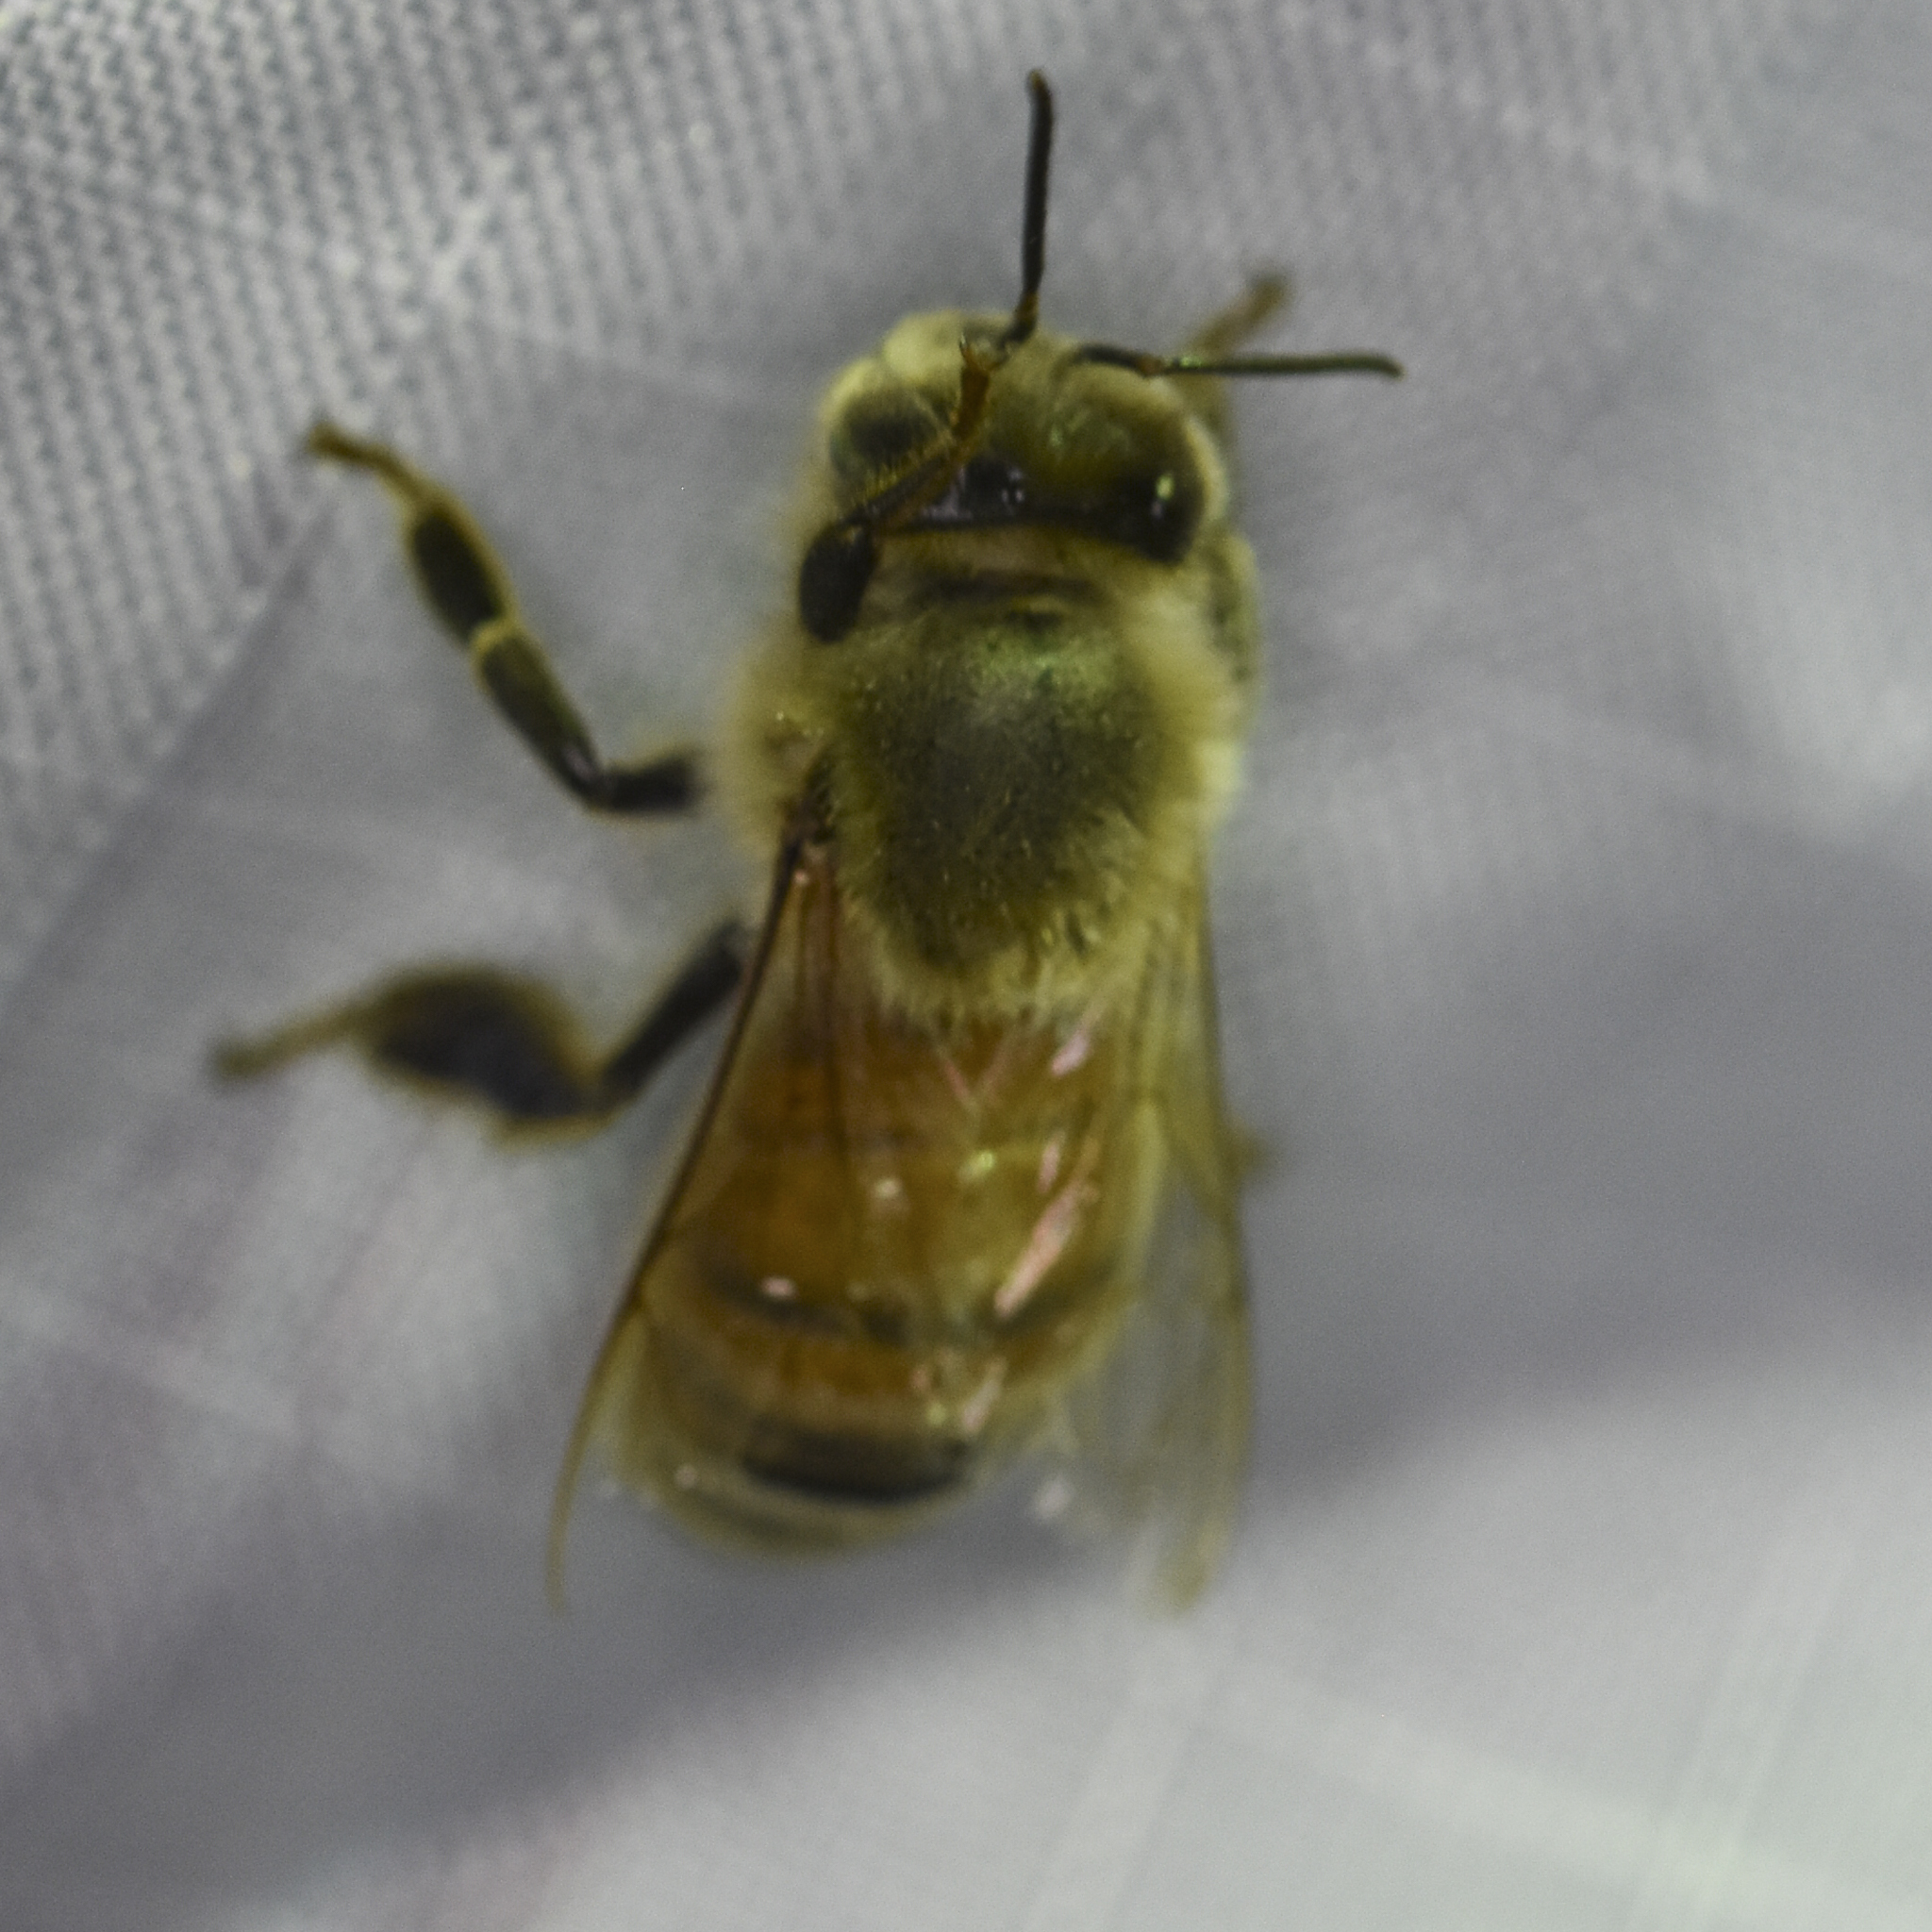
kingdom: Animalia
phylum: Arthropoda
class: Insecta
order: Hymenoptera
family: Apidae
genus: Apis
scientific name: Apis mellifera
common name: Honey bee
